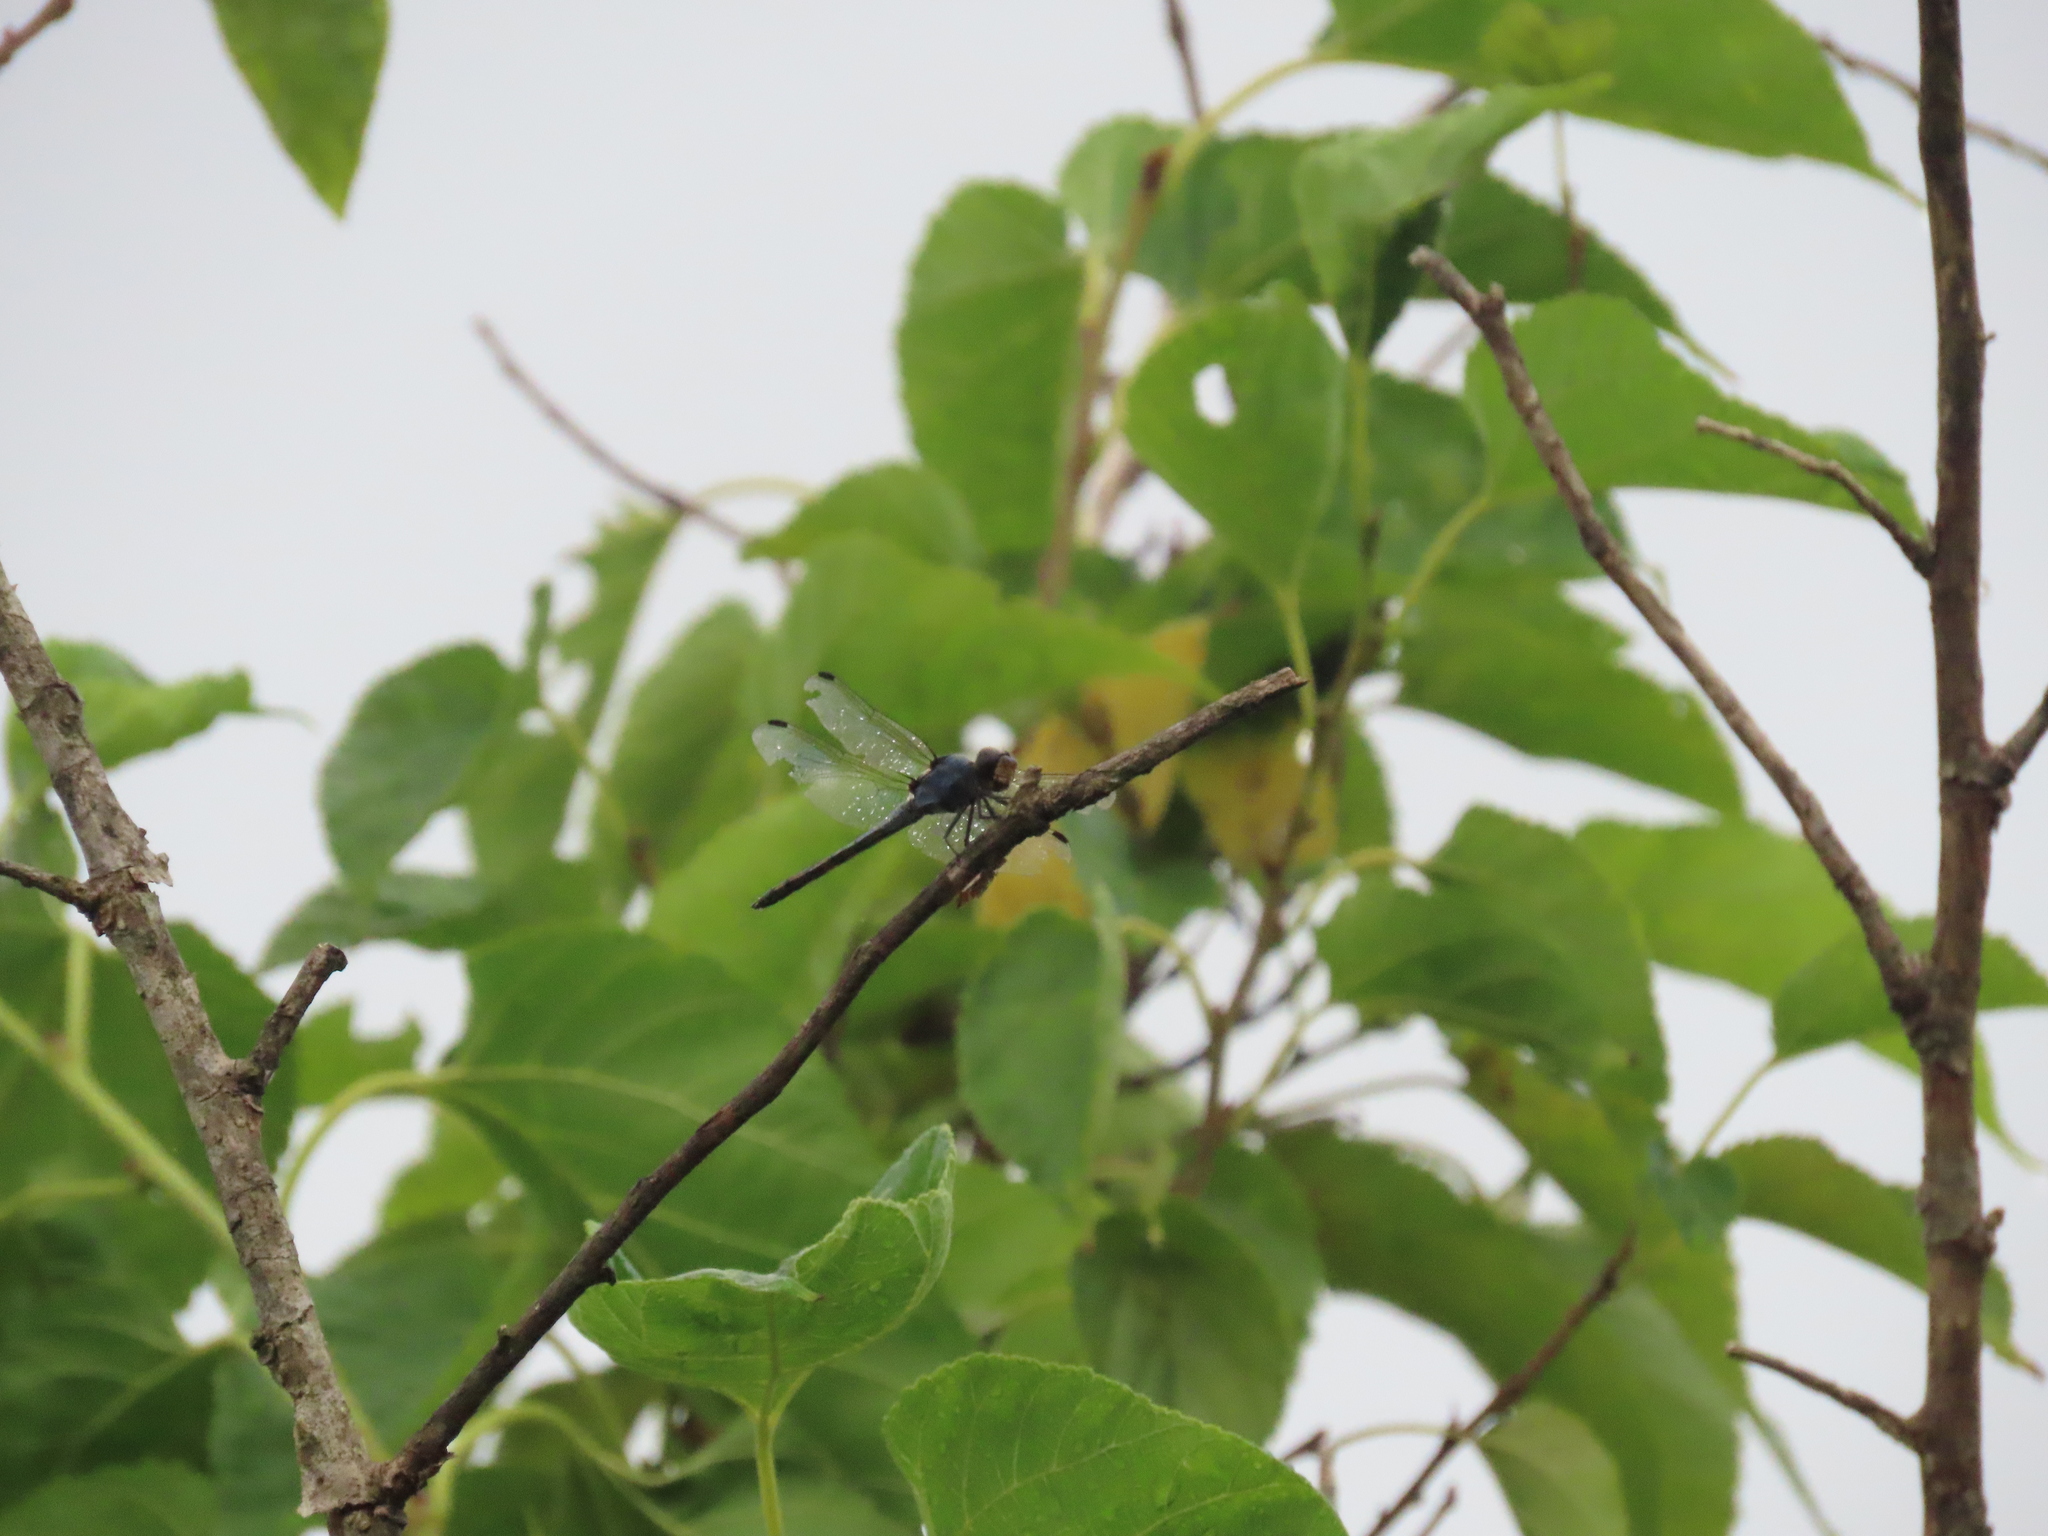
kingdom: Animalia
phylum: Arthropoda
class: Insecta
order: Odonata
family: Libellulidae
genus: Potamarcha
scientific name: Potamarcha congener
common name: Blue chaser
